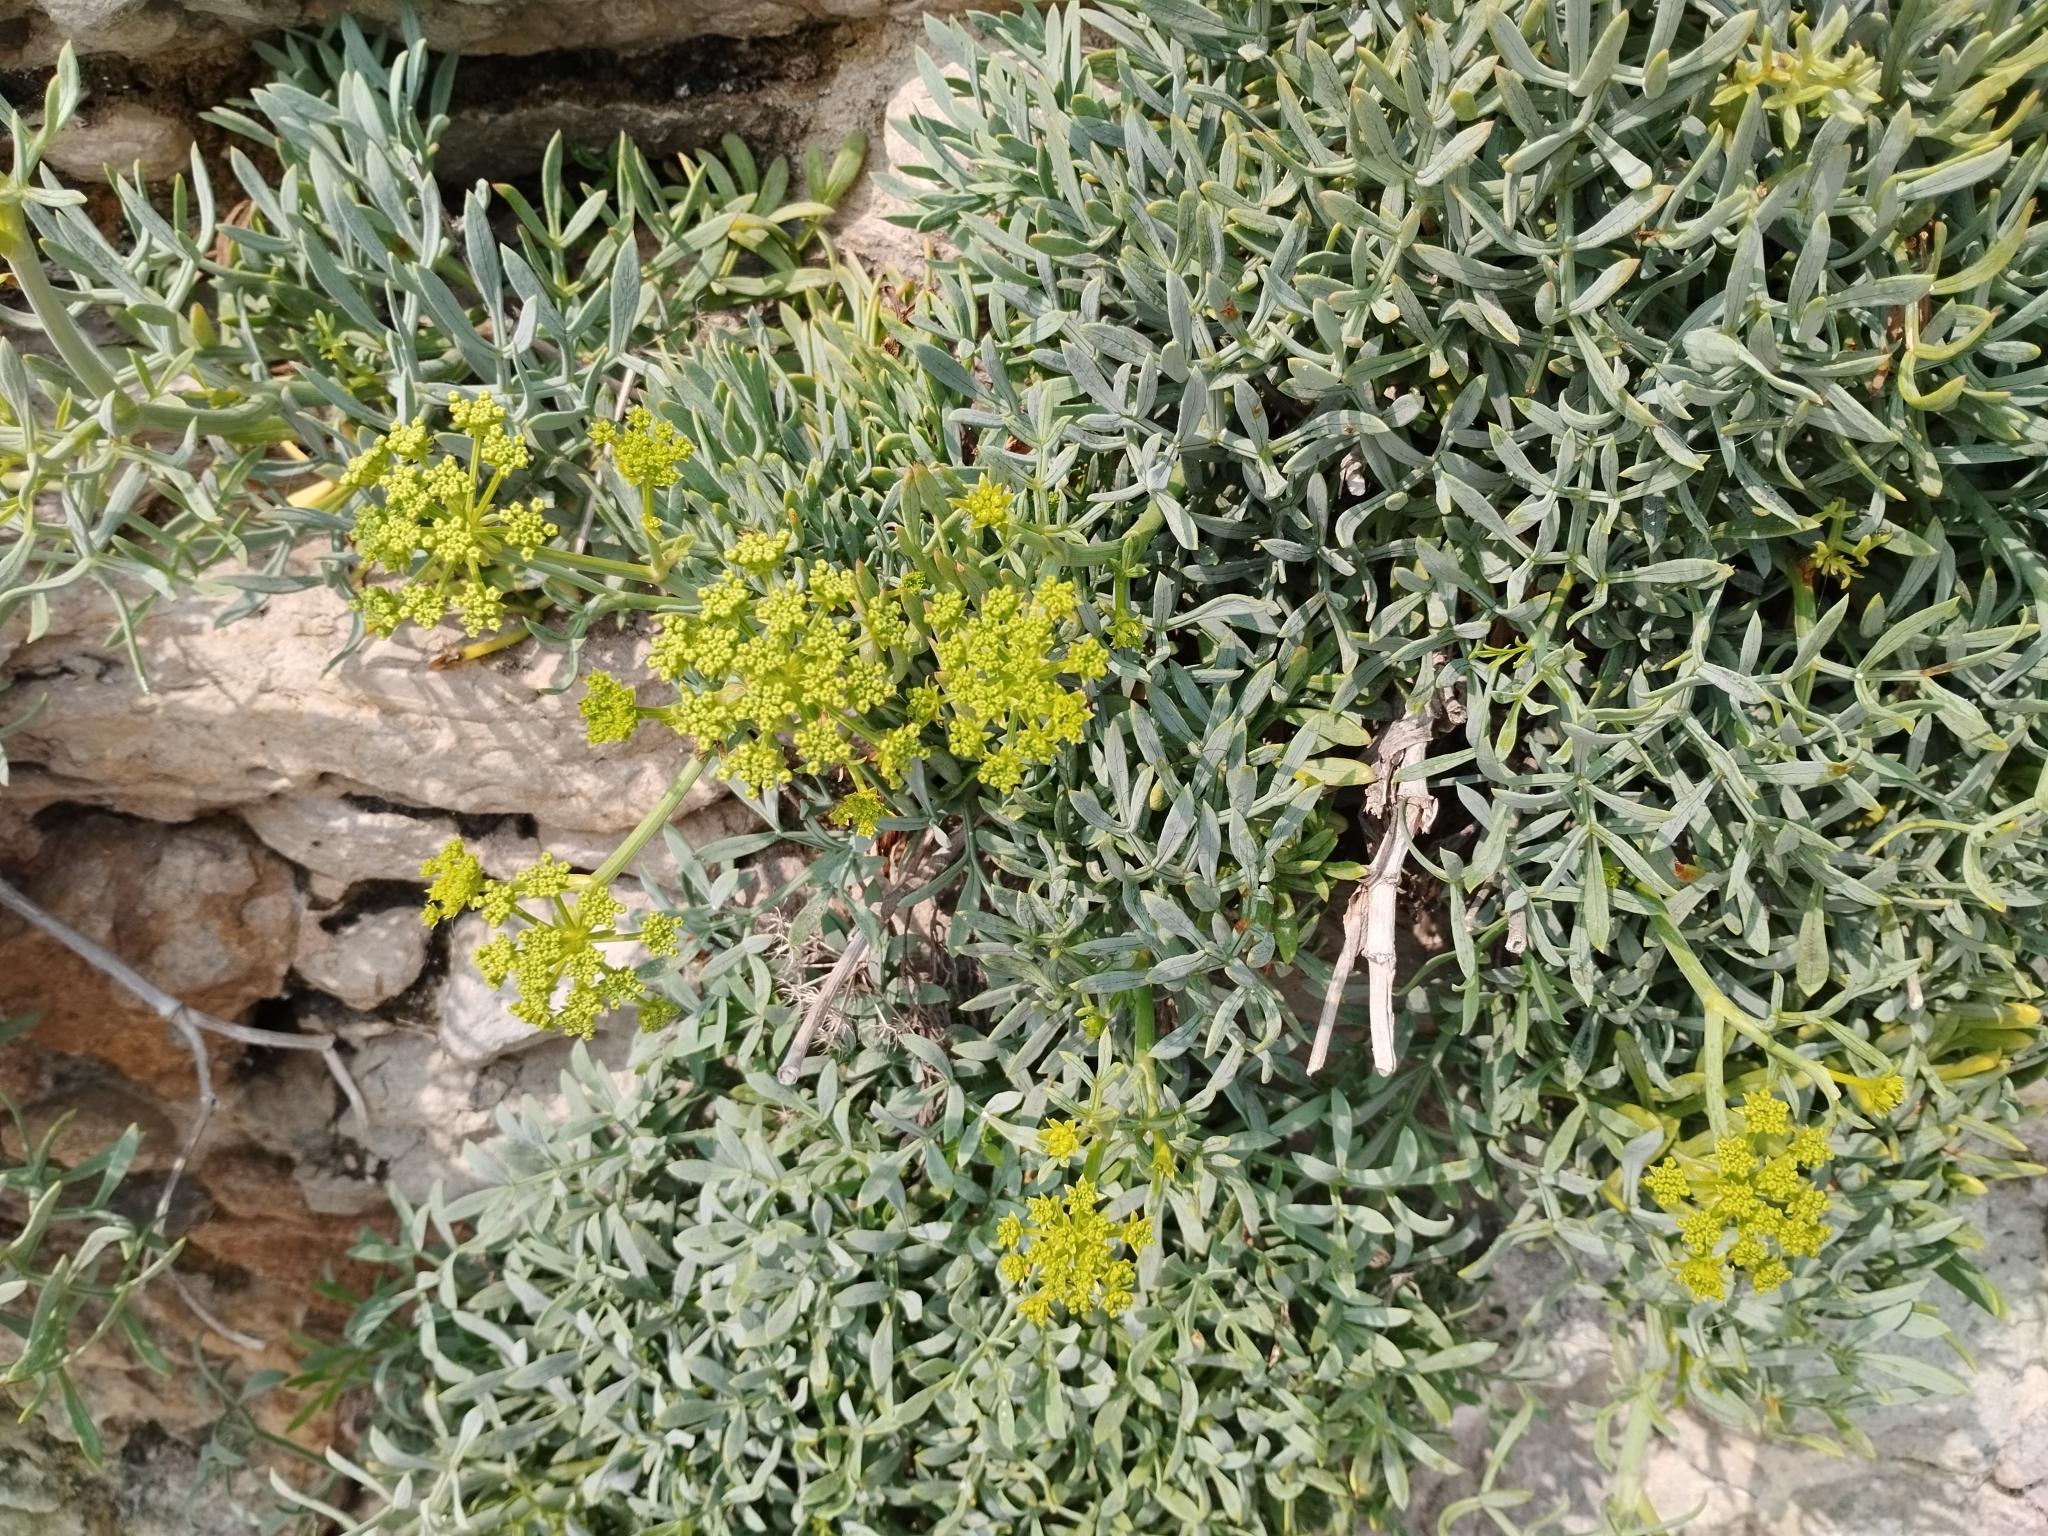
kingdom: Plantae
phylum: Tracheophyta
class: Magnoliopsida
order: Apiales
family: Apiaceae
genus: Crithmum
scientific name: Crithmum maritimum
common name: Rock samphire
